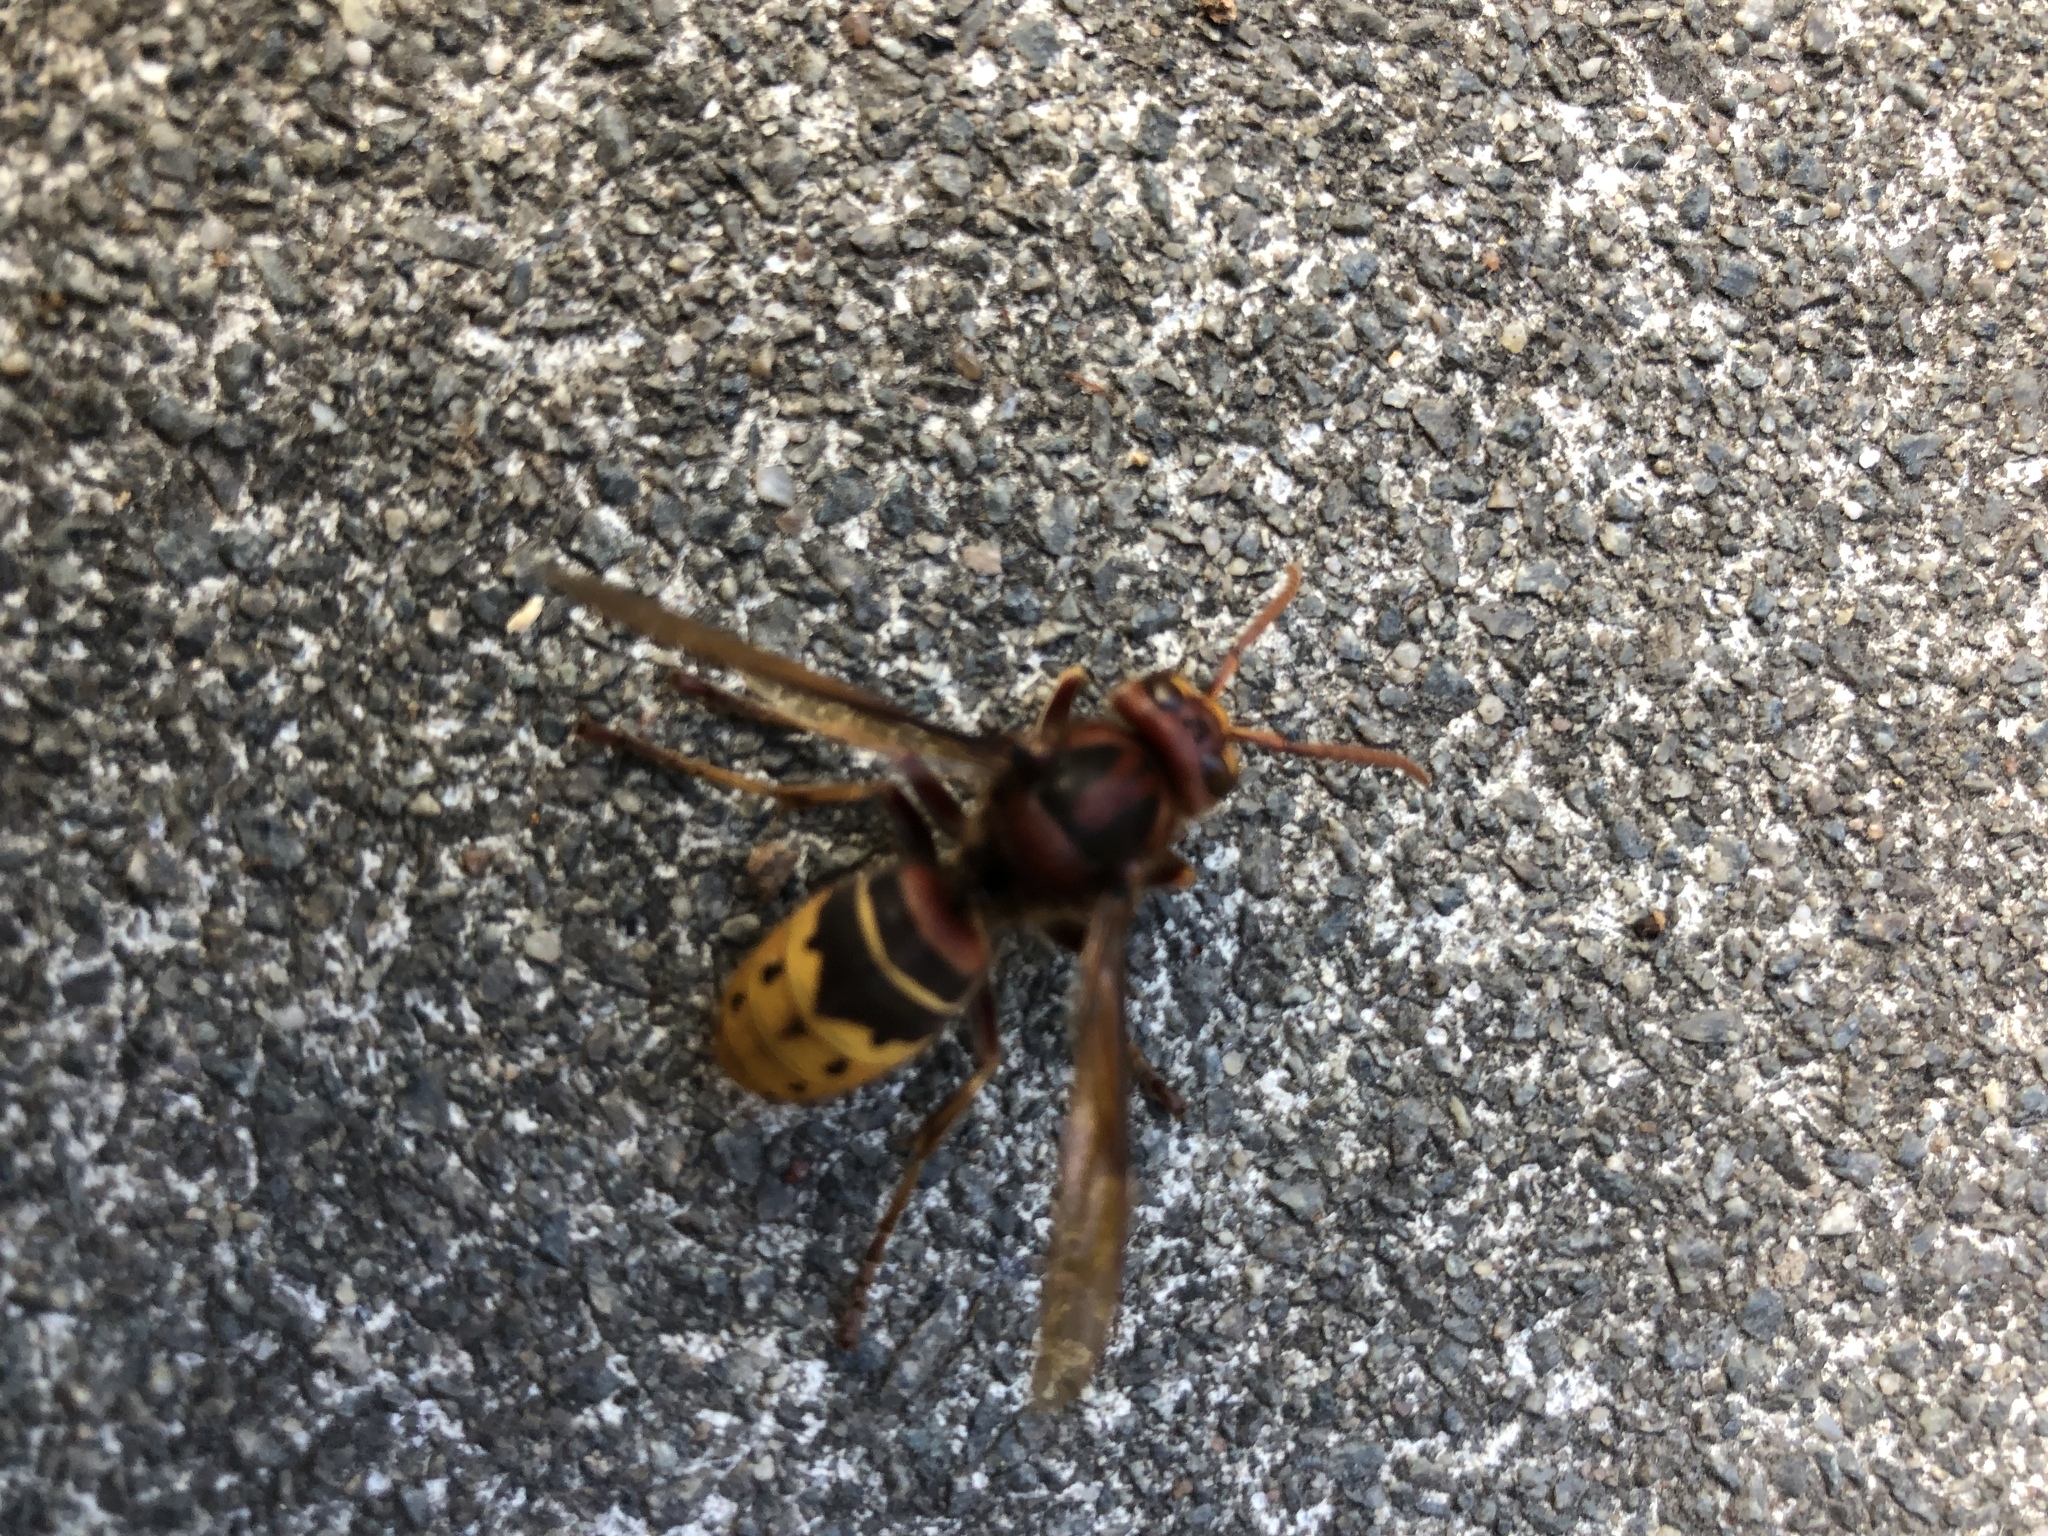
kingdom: Animalia
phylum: Arthropoda
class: Insecta
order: Hymenoptera
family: Vespidae
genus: Vespa
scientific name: Vespa crabro
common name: Hornet
